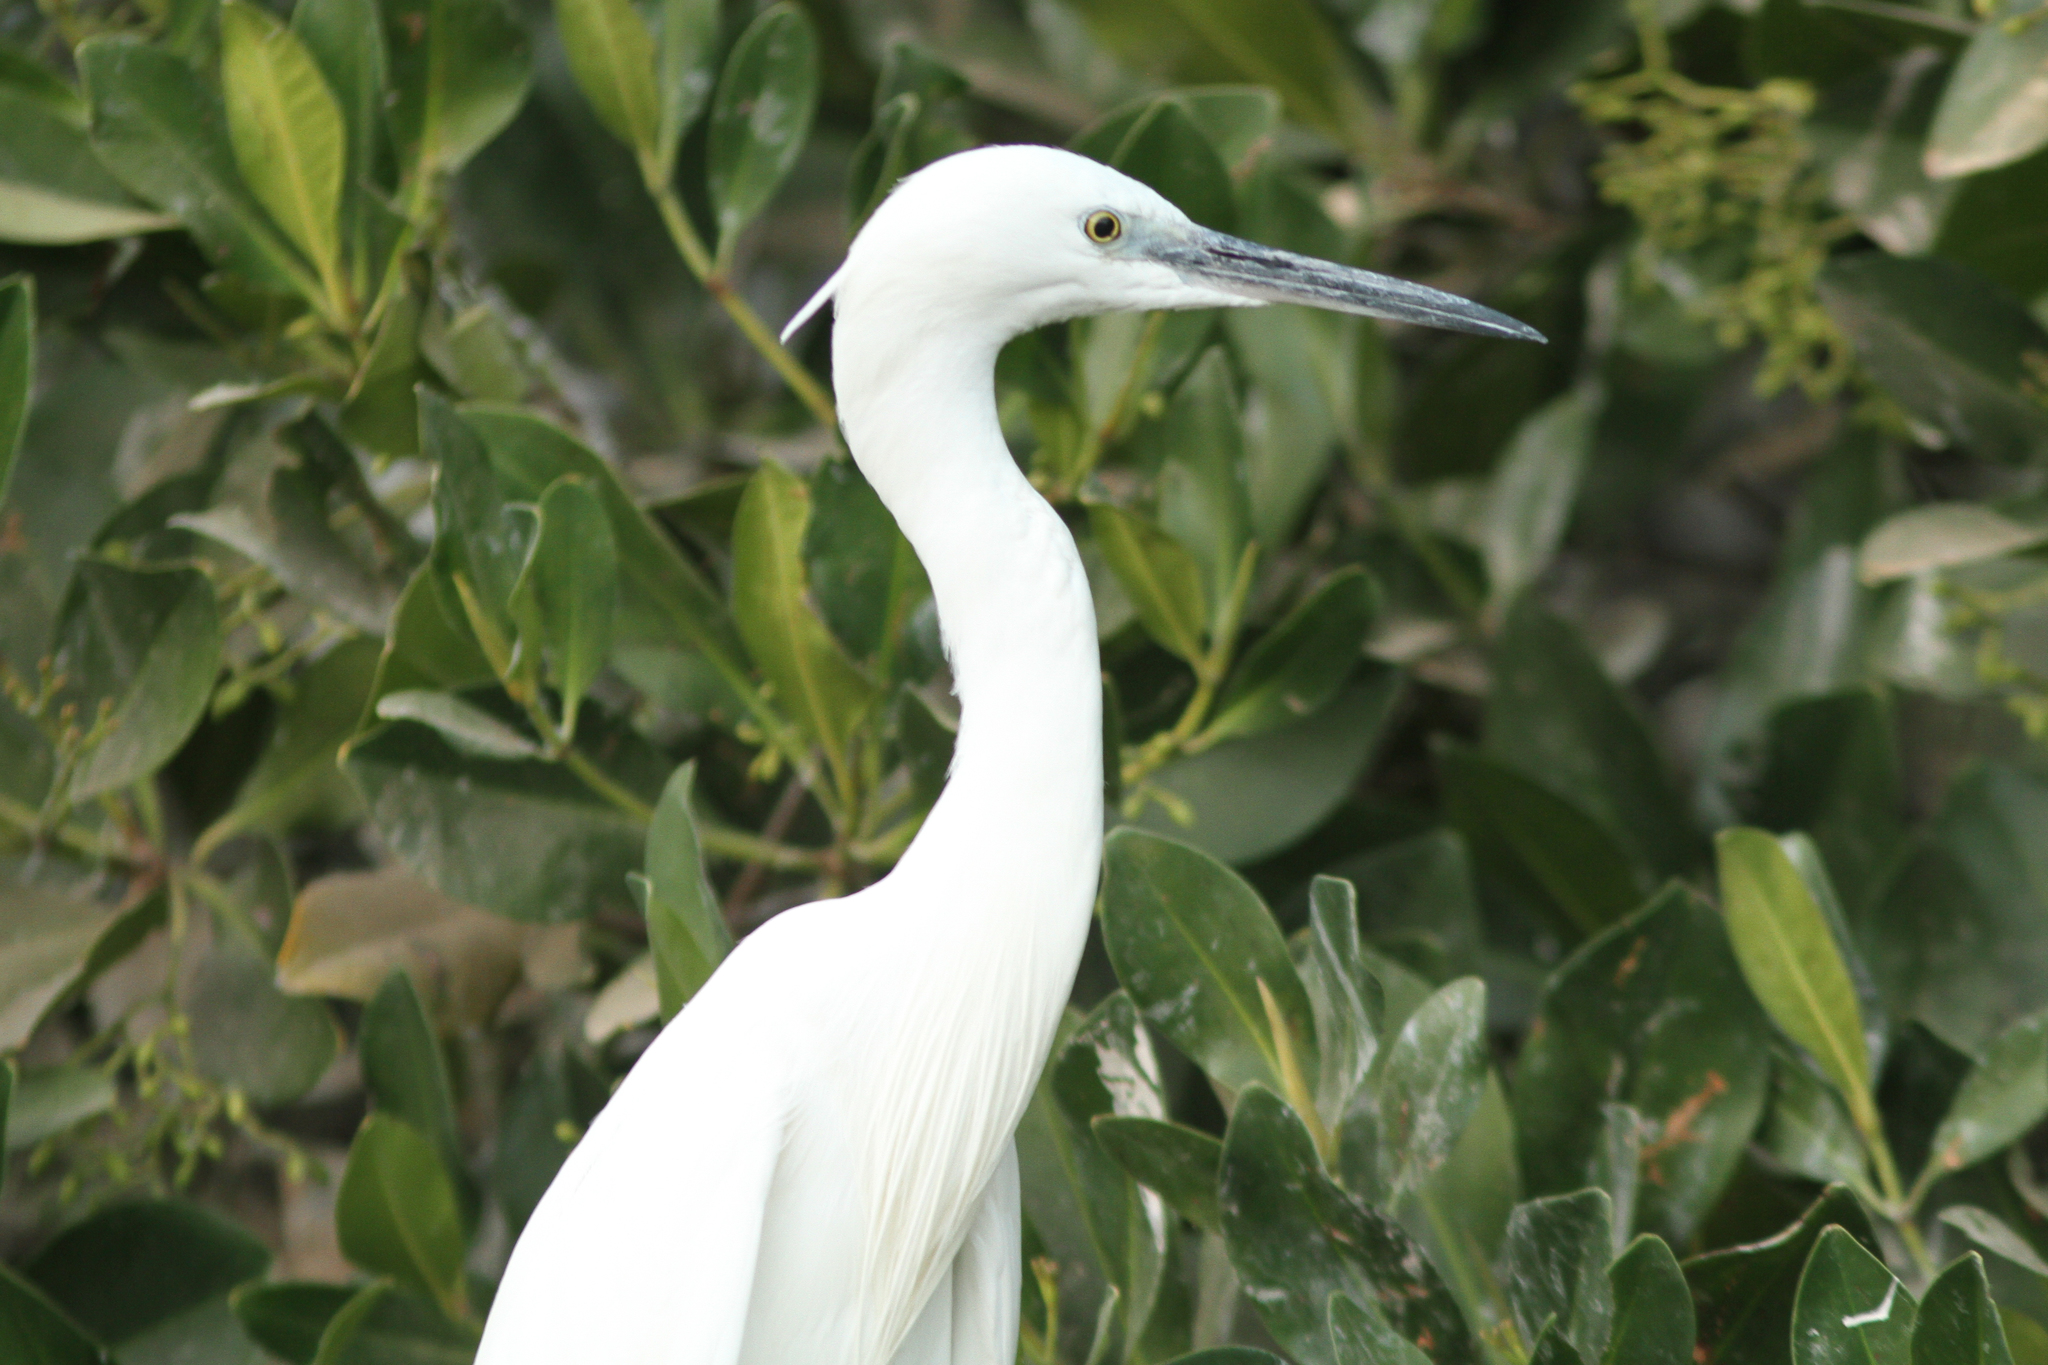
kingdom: Animalia
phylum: Chordata
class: Aves
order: Pelecaniformes
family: Ardeidae
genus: Egretta
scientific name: Egretta garzetta
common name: Little egret
